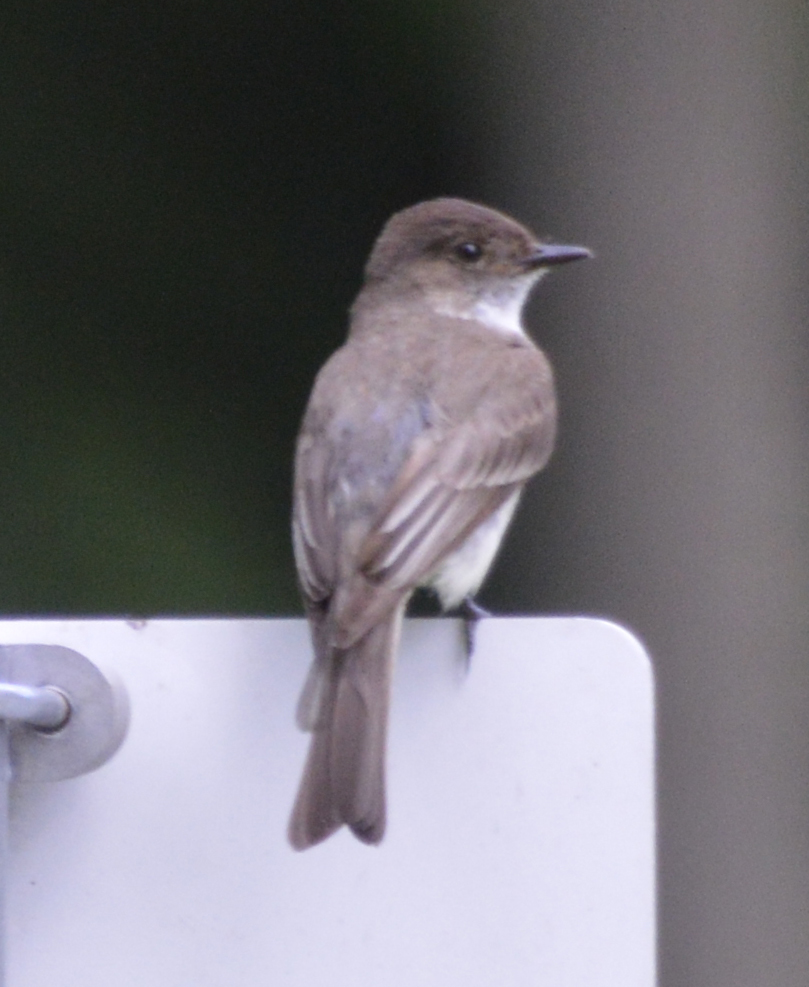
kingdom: Animalia
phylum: Chordata
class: Aves
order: Passeriformes
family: Tyrannidae
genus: Sayornis
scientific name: Sayornis phoebe
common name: Eastern phoebe
